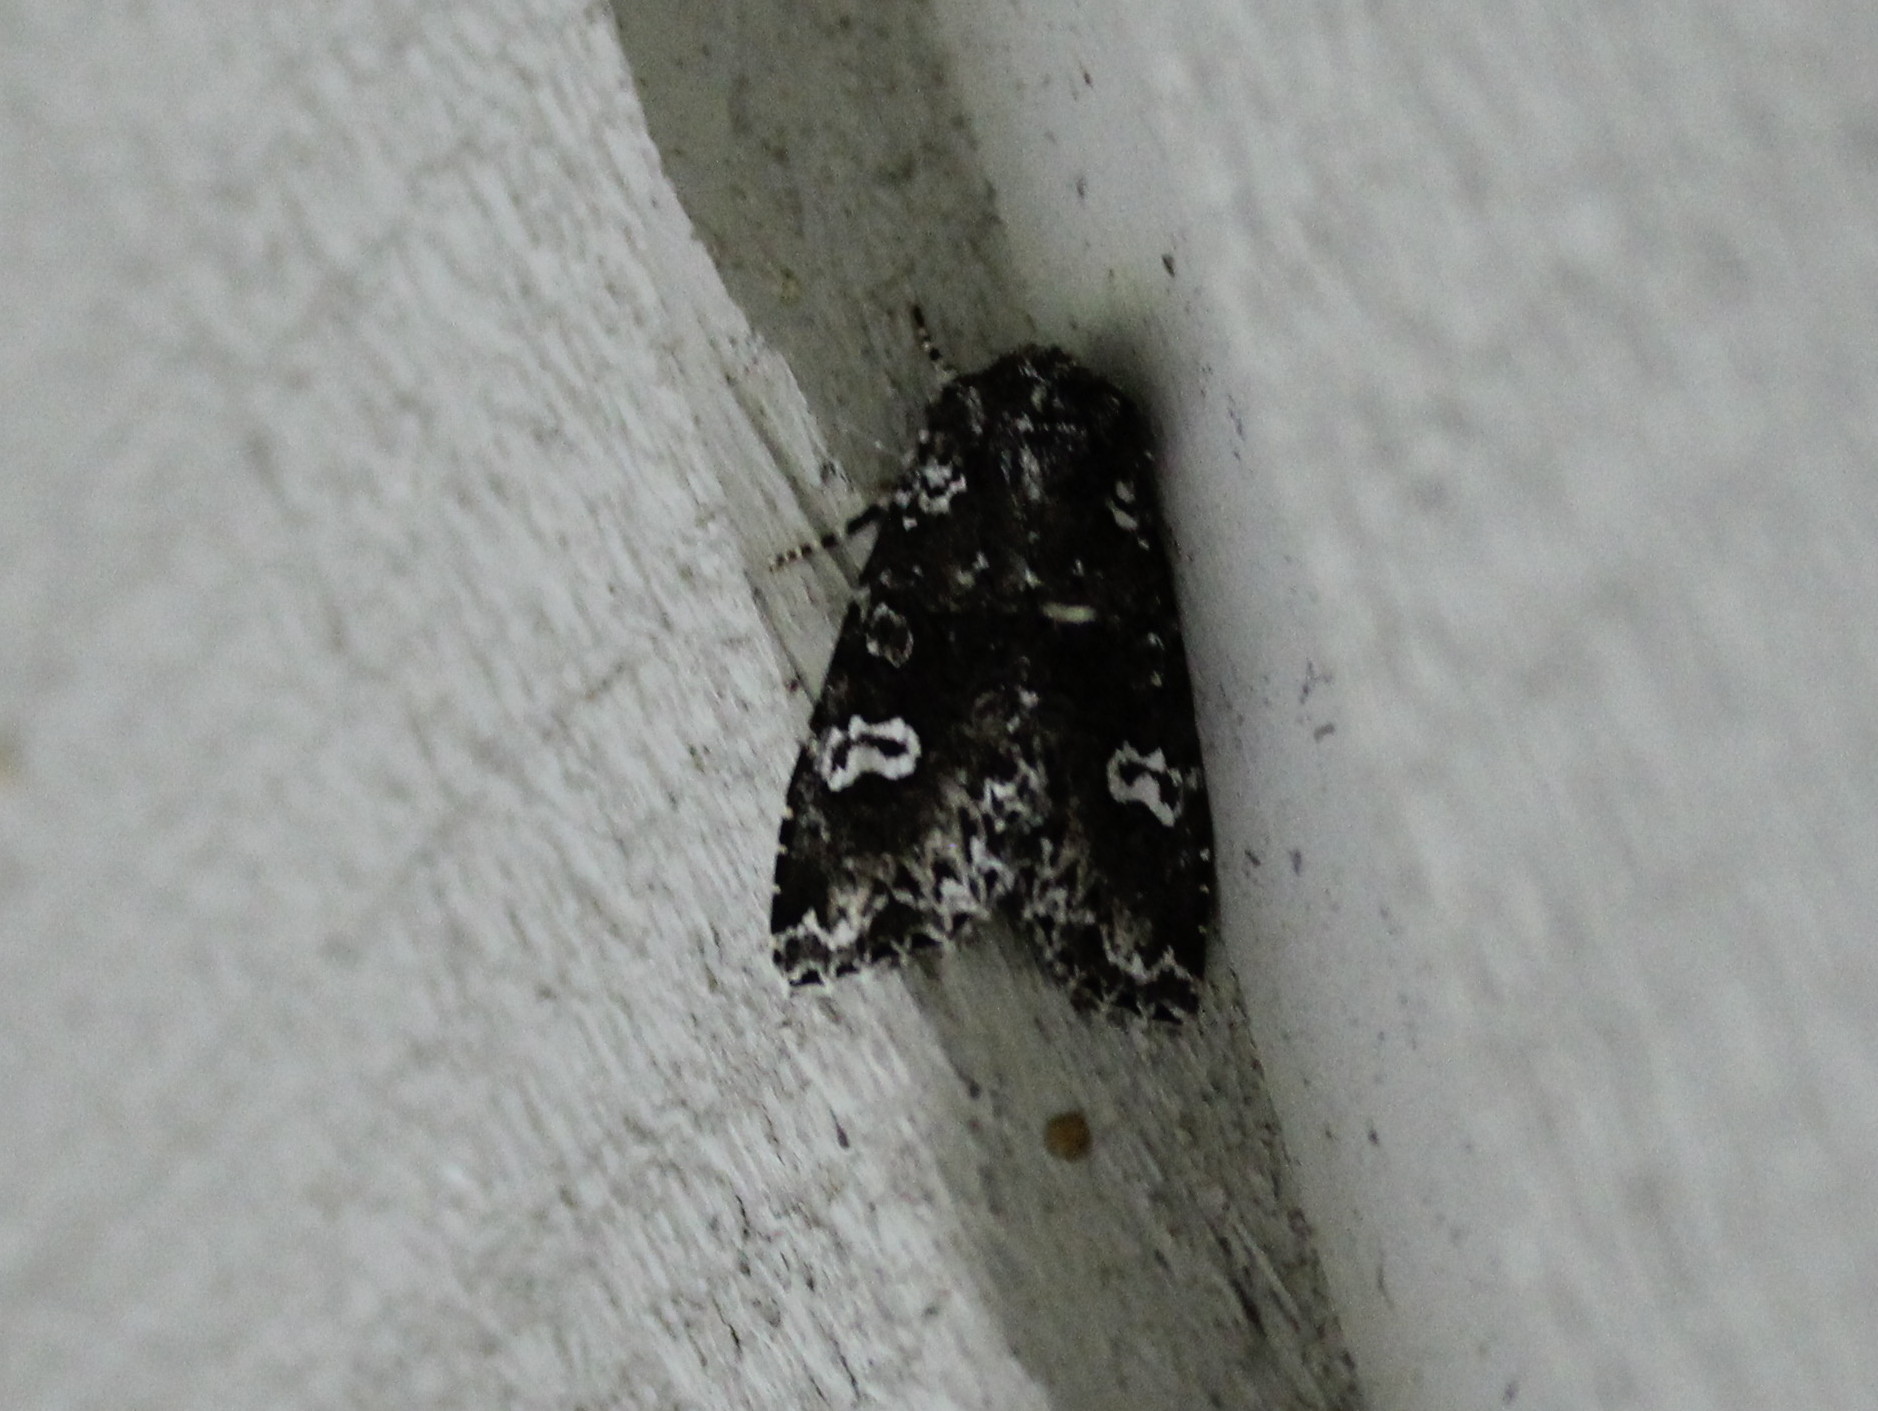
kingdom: Animalia
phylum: Arthropoda
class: Insecta
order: Lepidoptera
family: Noctuidae
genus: Melanchra
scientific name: Melanchra adjuncta
